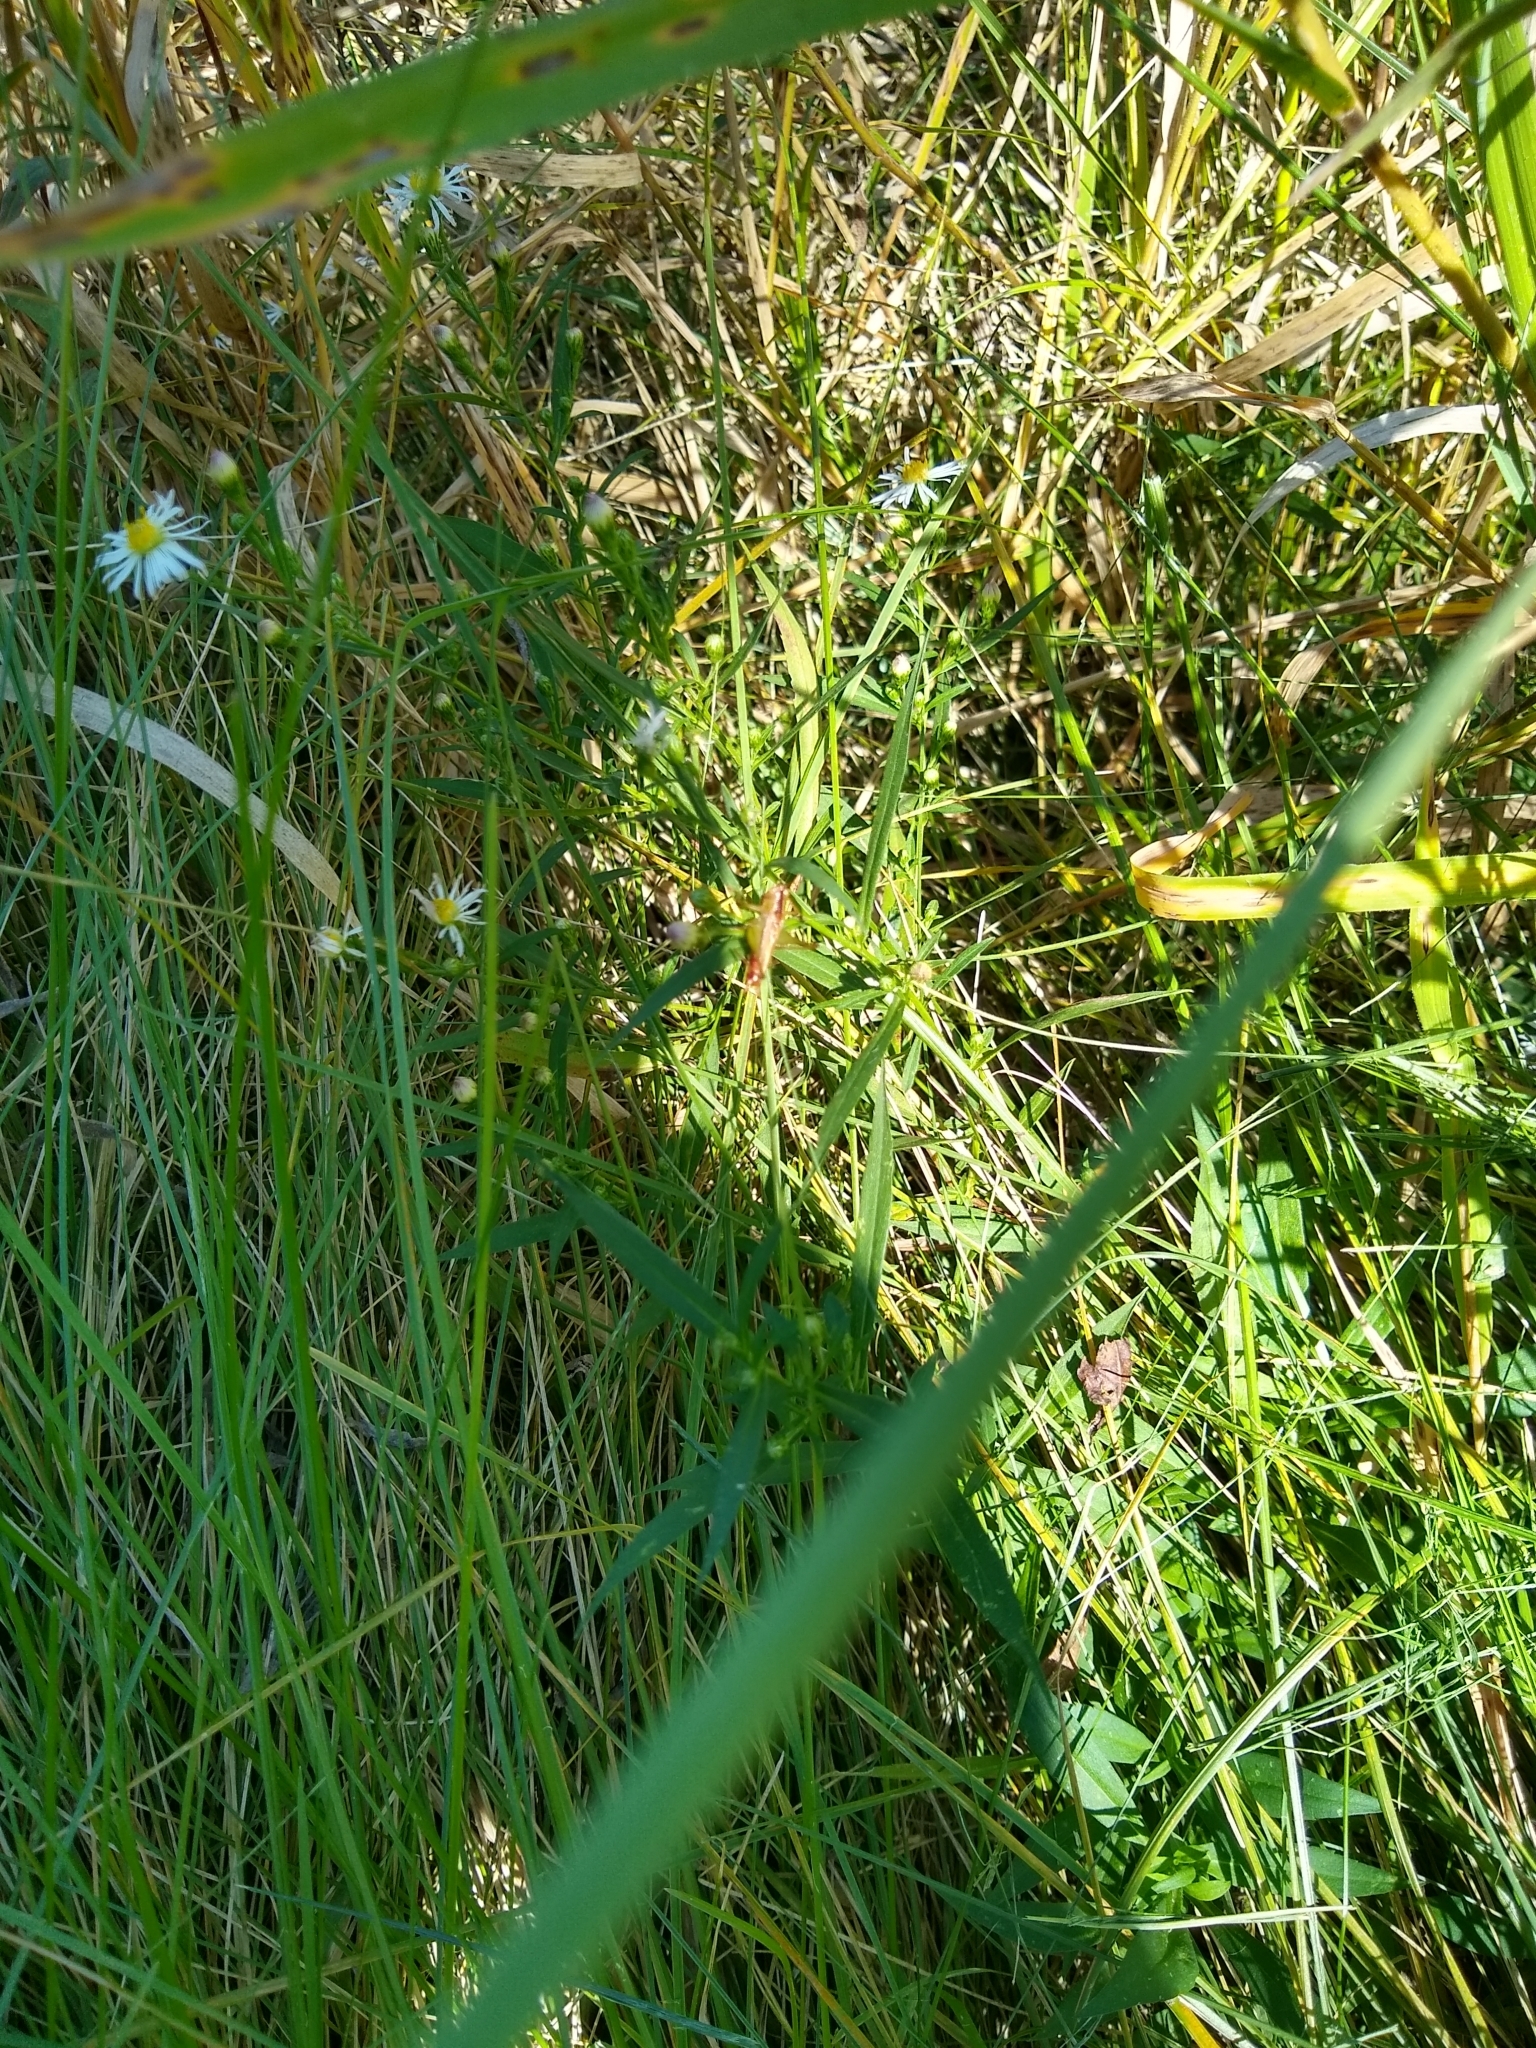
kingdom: Animalia
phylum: Arthropoda
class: Insecta
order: Orthoptera
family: Tettigoniidae
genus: Conocephalus
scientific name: Conocephalus brevipennis
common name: Short-winged meadow katydid
